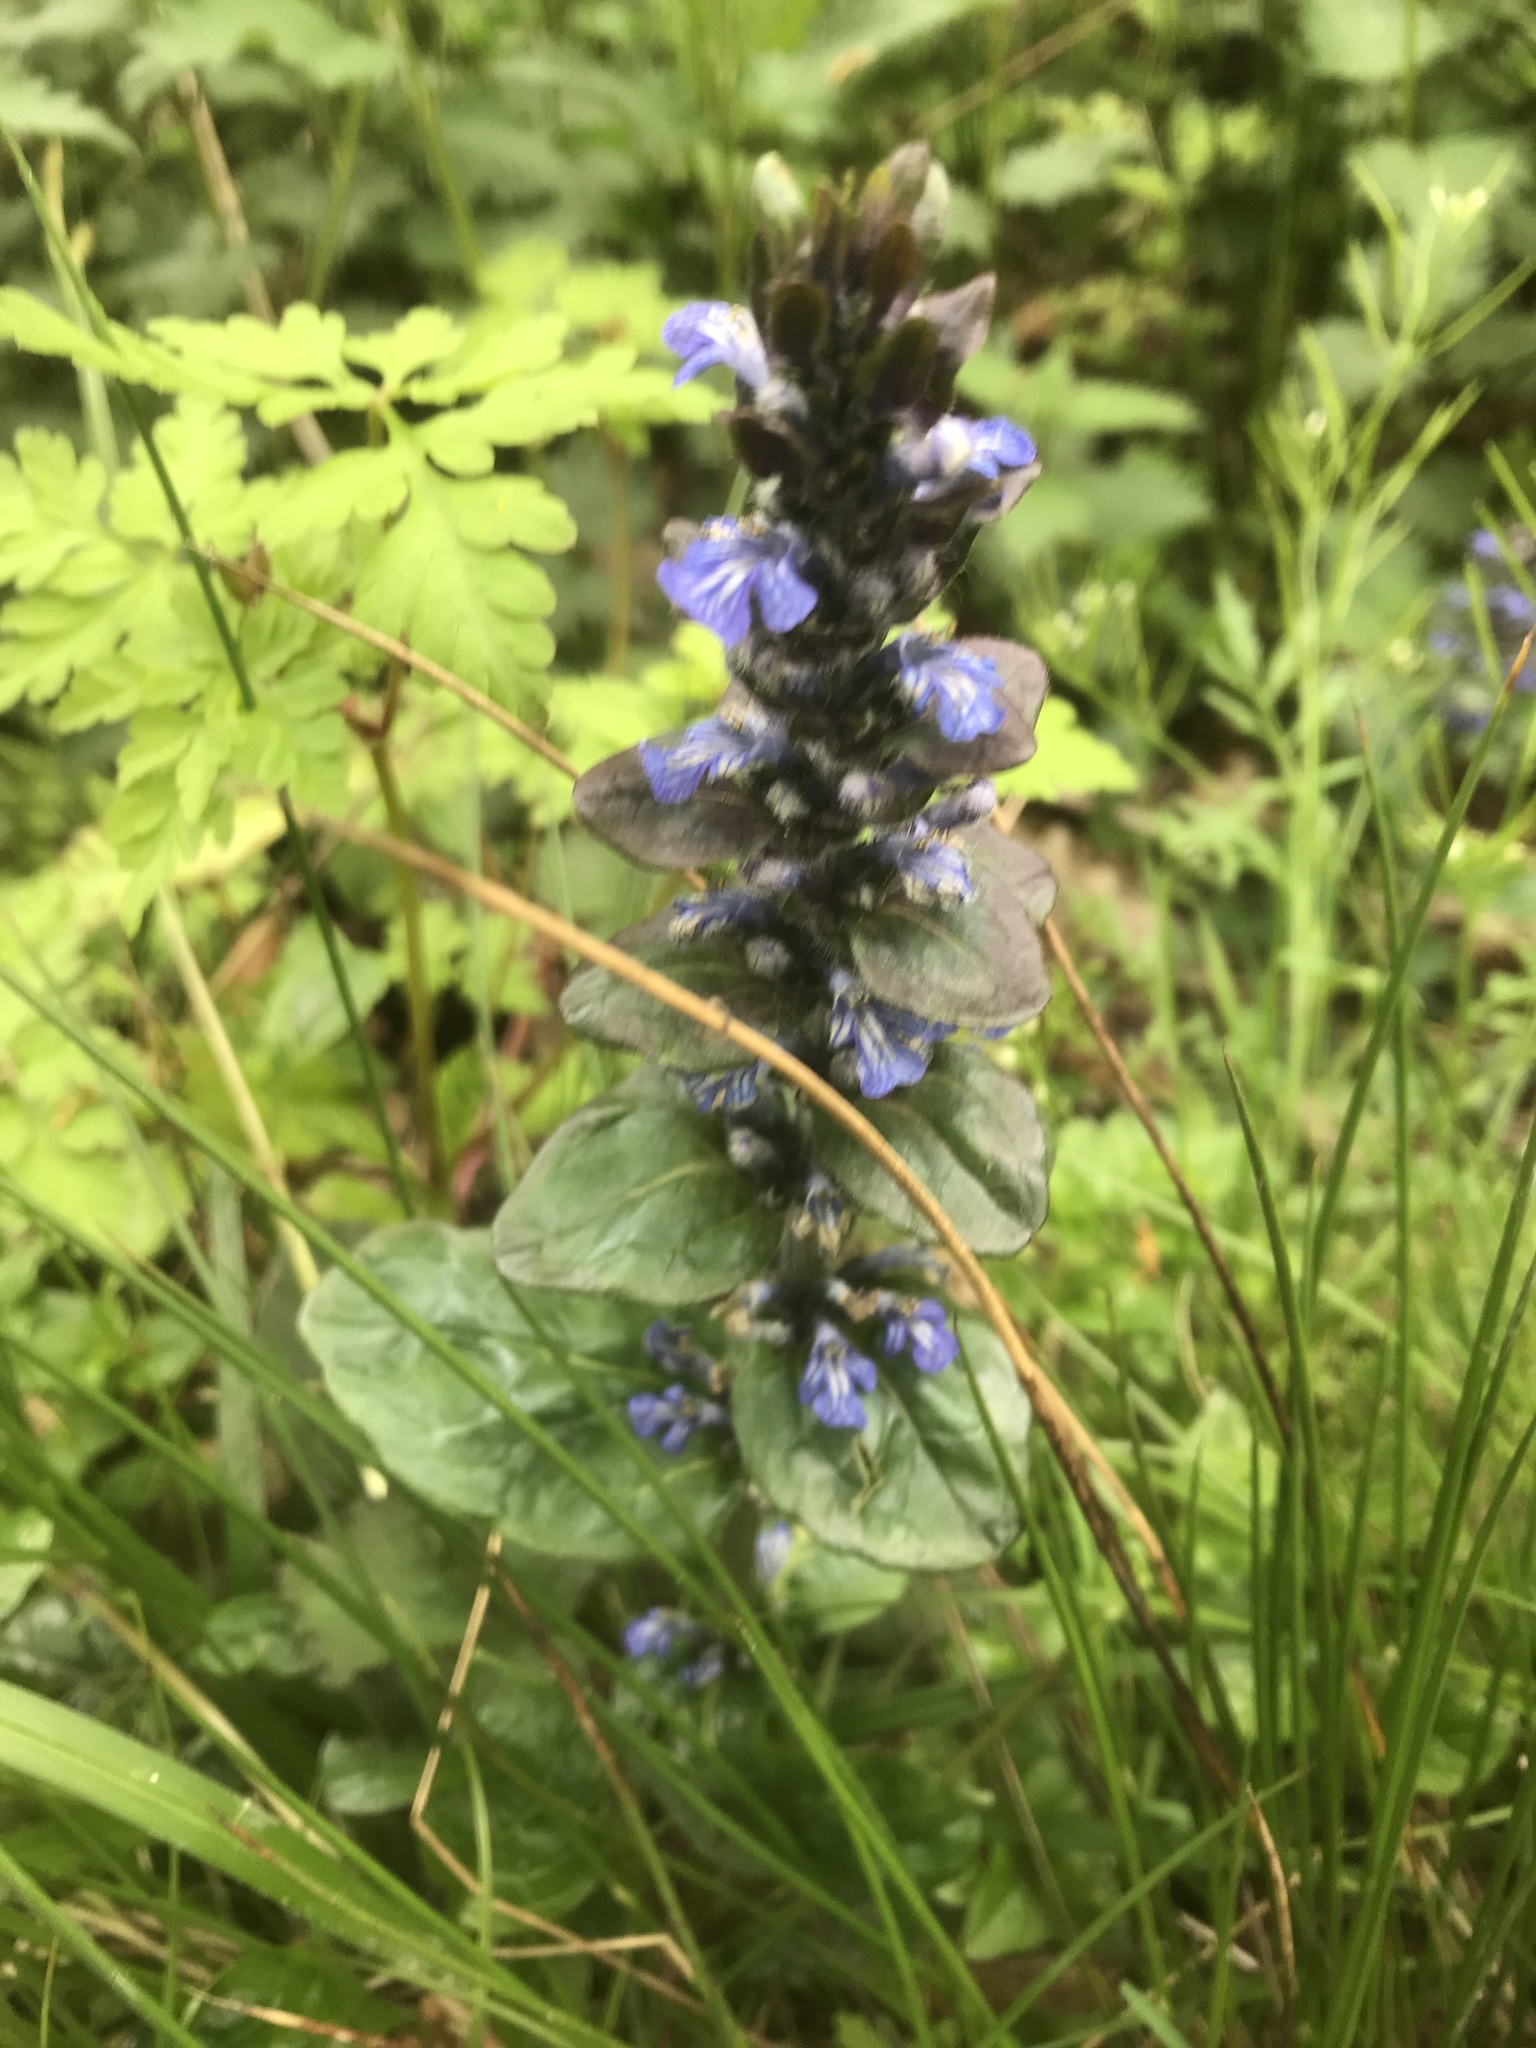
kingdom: Plantae
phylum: Tracheophyta
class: Magnoliopsida
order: Lamiales
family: Lamiaceae
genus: Ajuga
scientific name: Ajuga reptans
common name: Bugle
